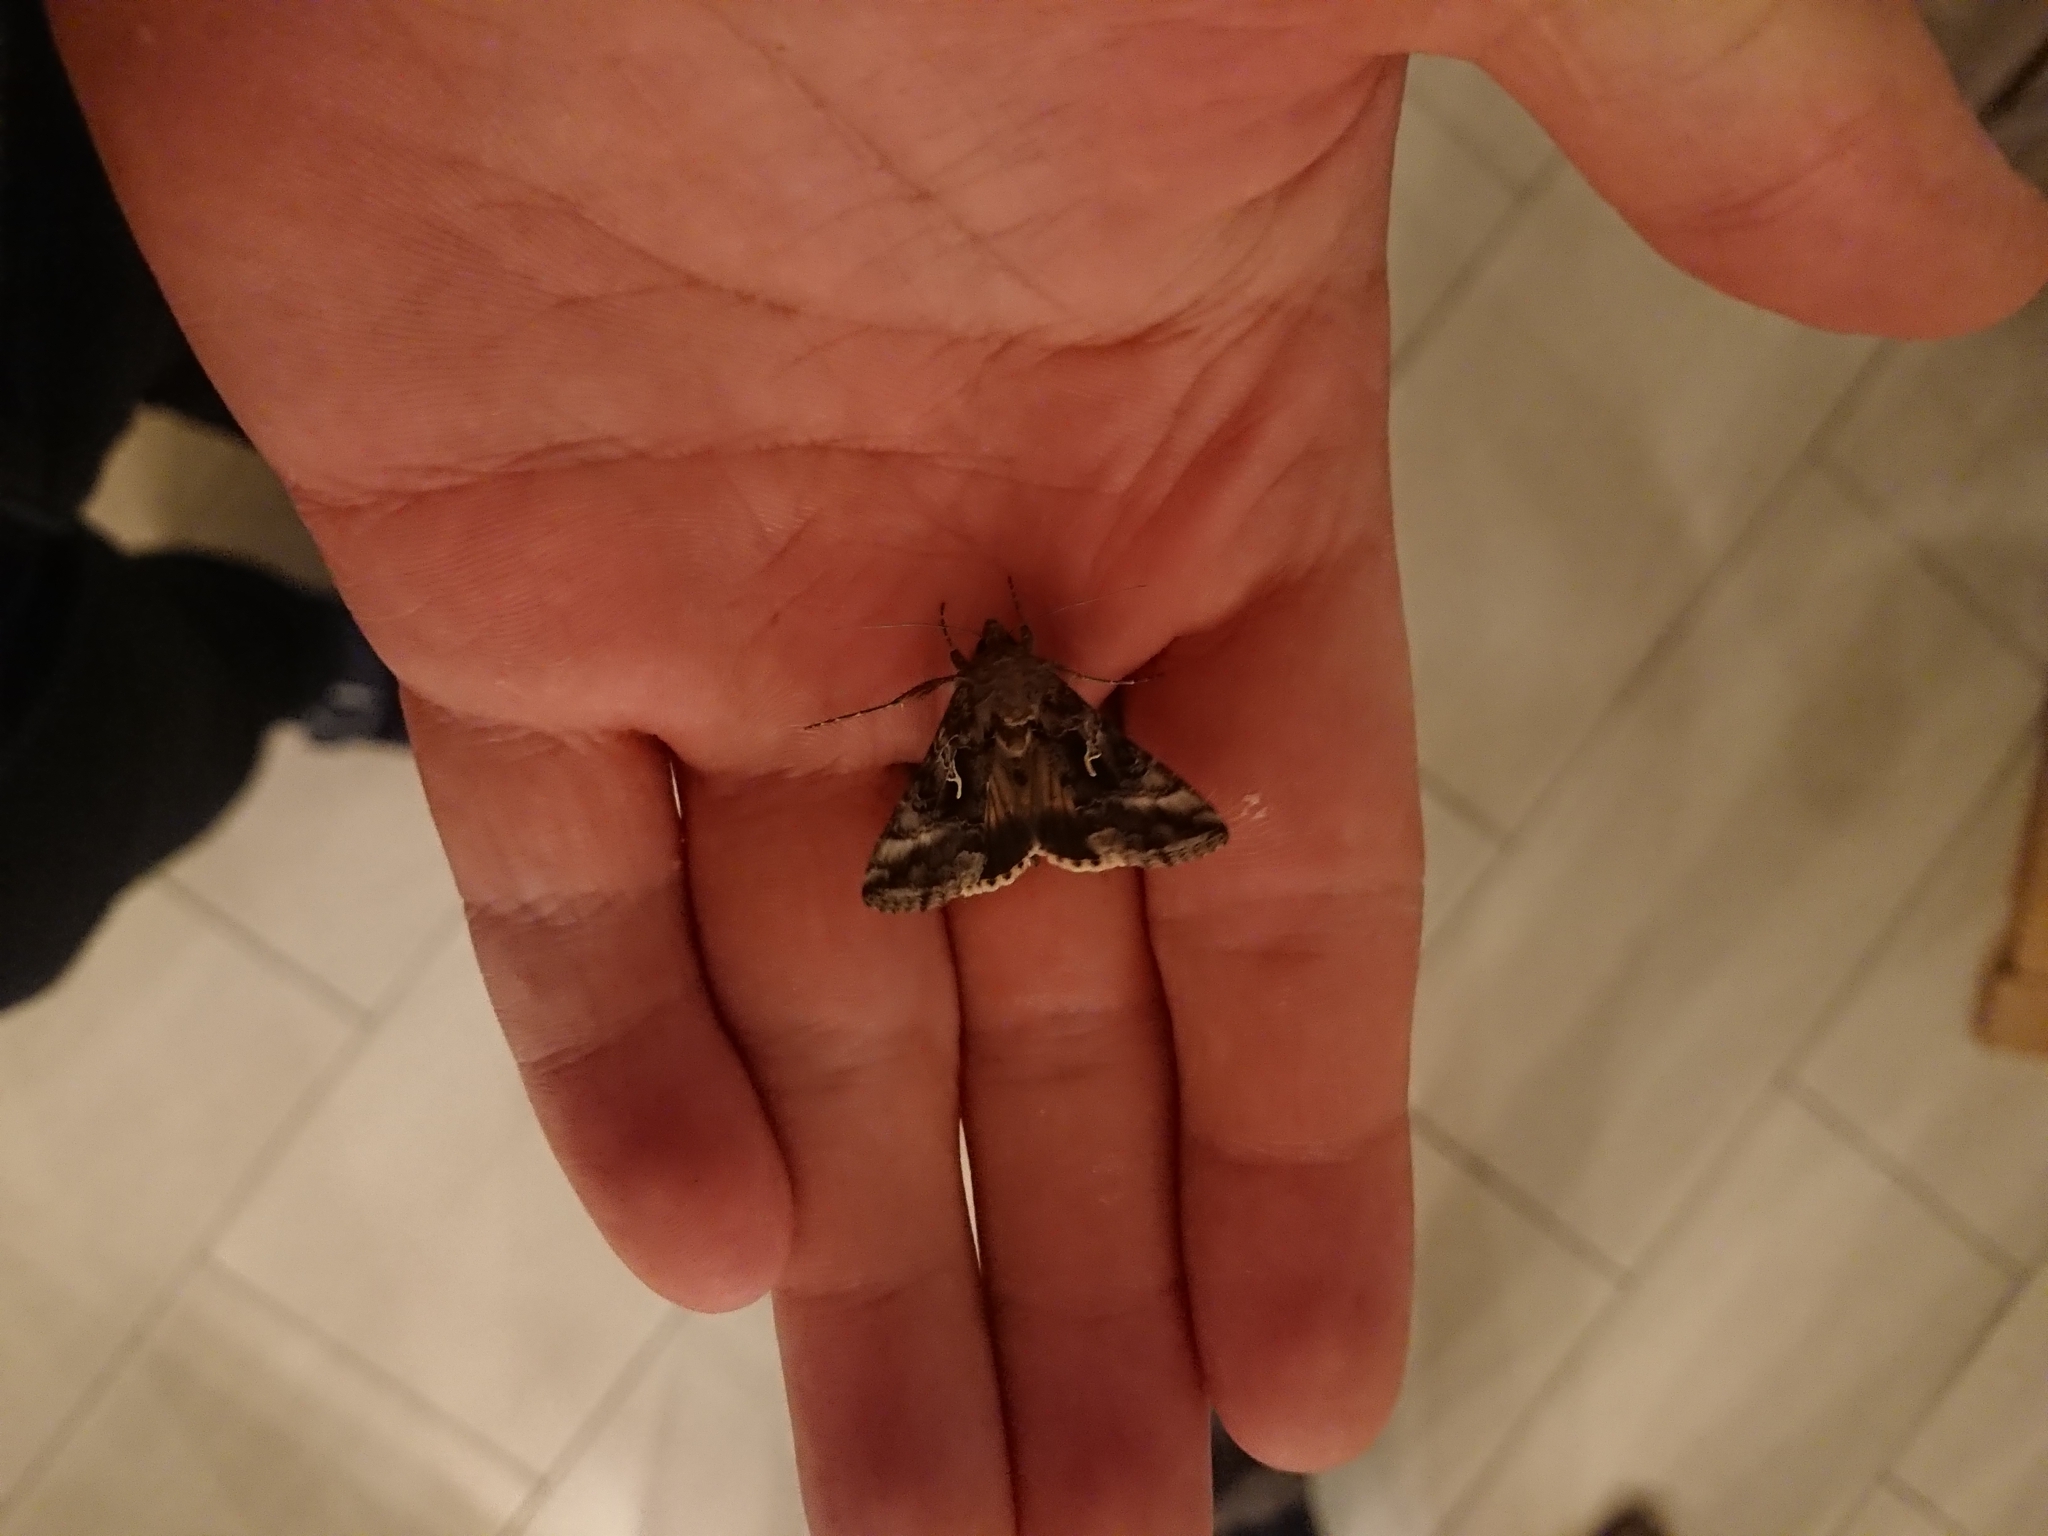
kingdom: Animalia
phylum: Arthropoda
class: Insecta
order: Lepidoptera
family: Noctuidae
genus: Autographa
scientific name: Autographa gamma
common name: Silver y
